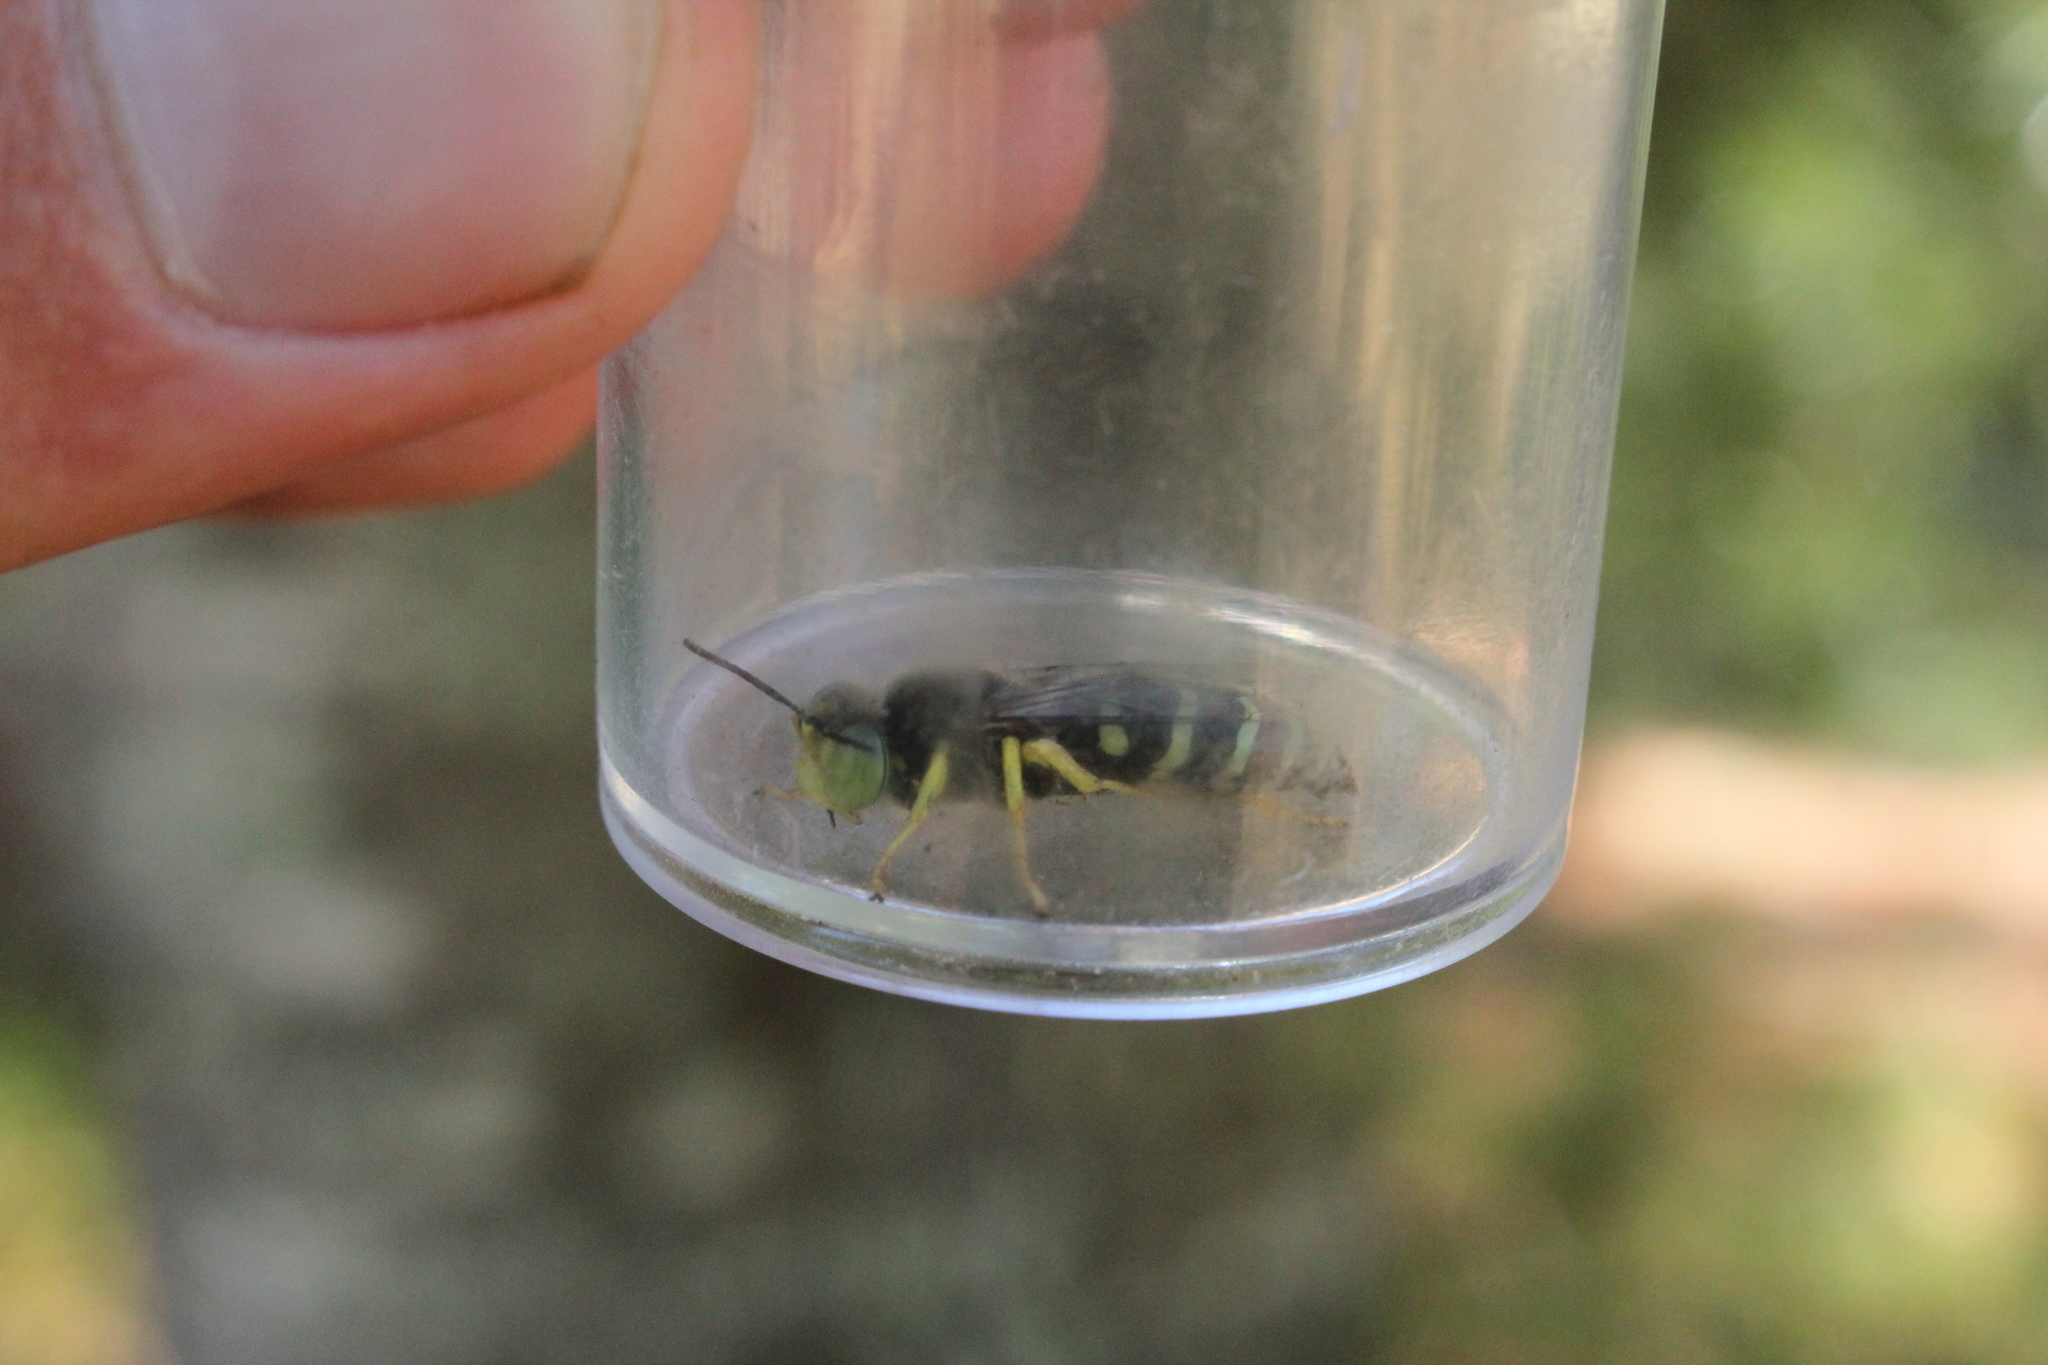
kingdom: Animalia
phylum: Arthropoda
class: Insecta
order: Hymenoptera
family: Crabronidae
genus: Bembix
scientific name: Bembix americana
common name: American sand wasp
